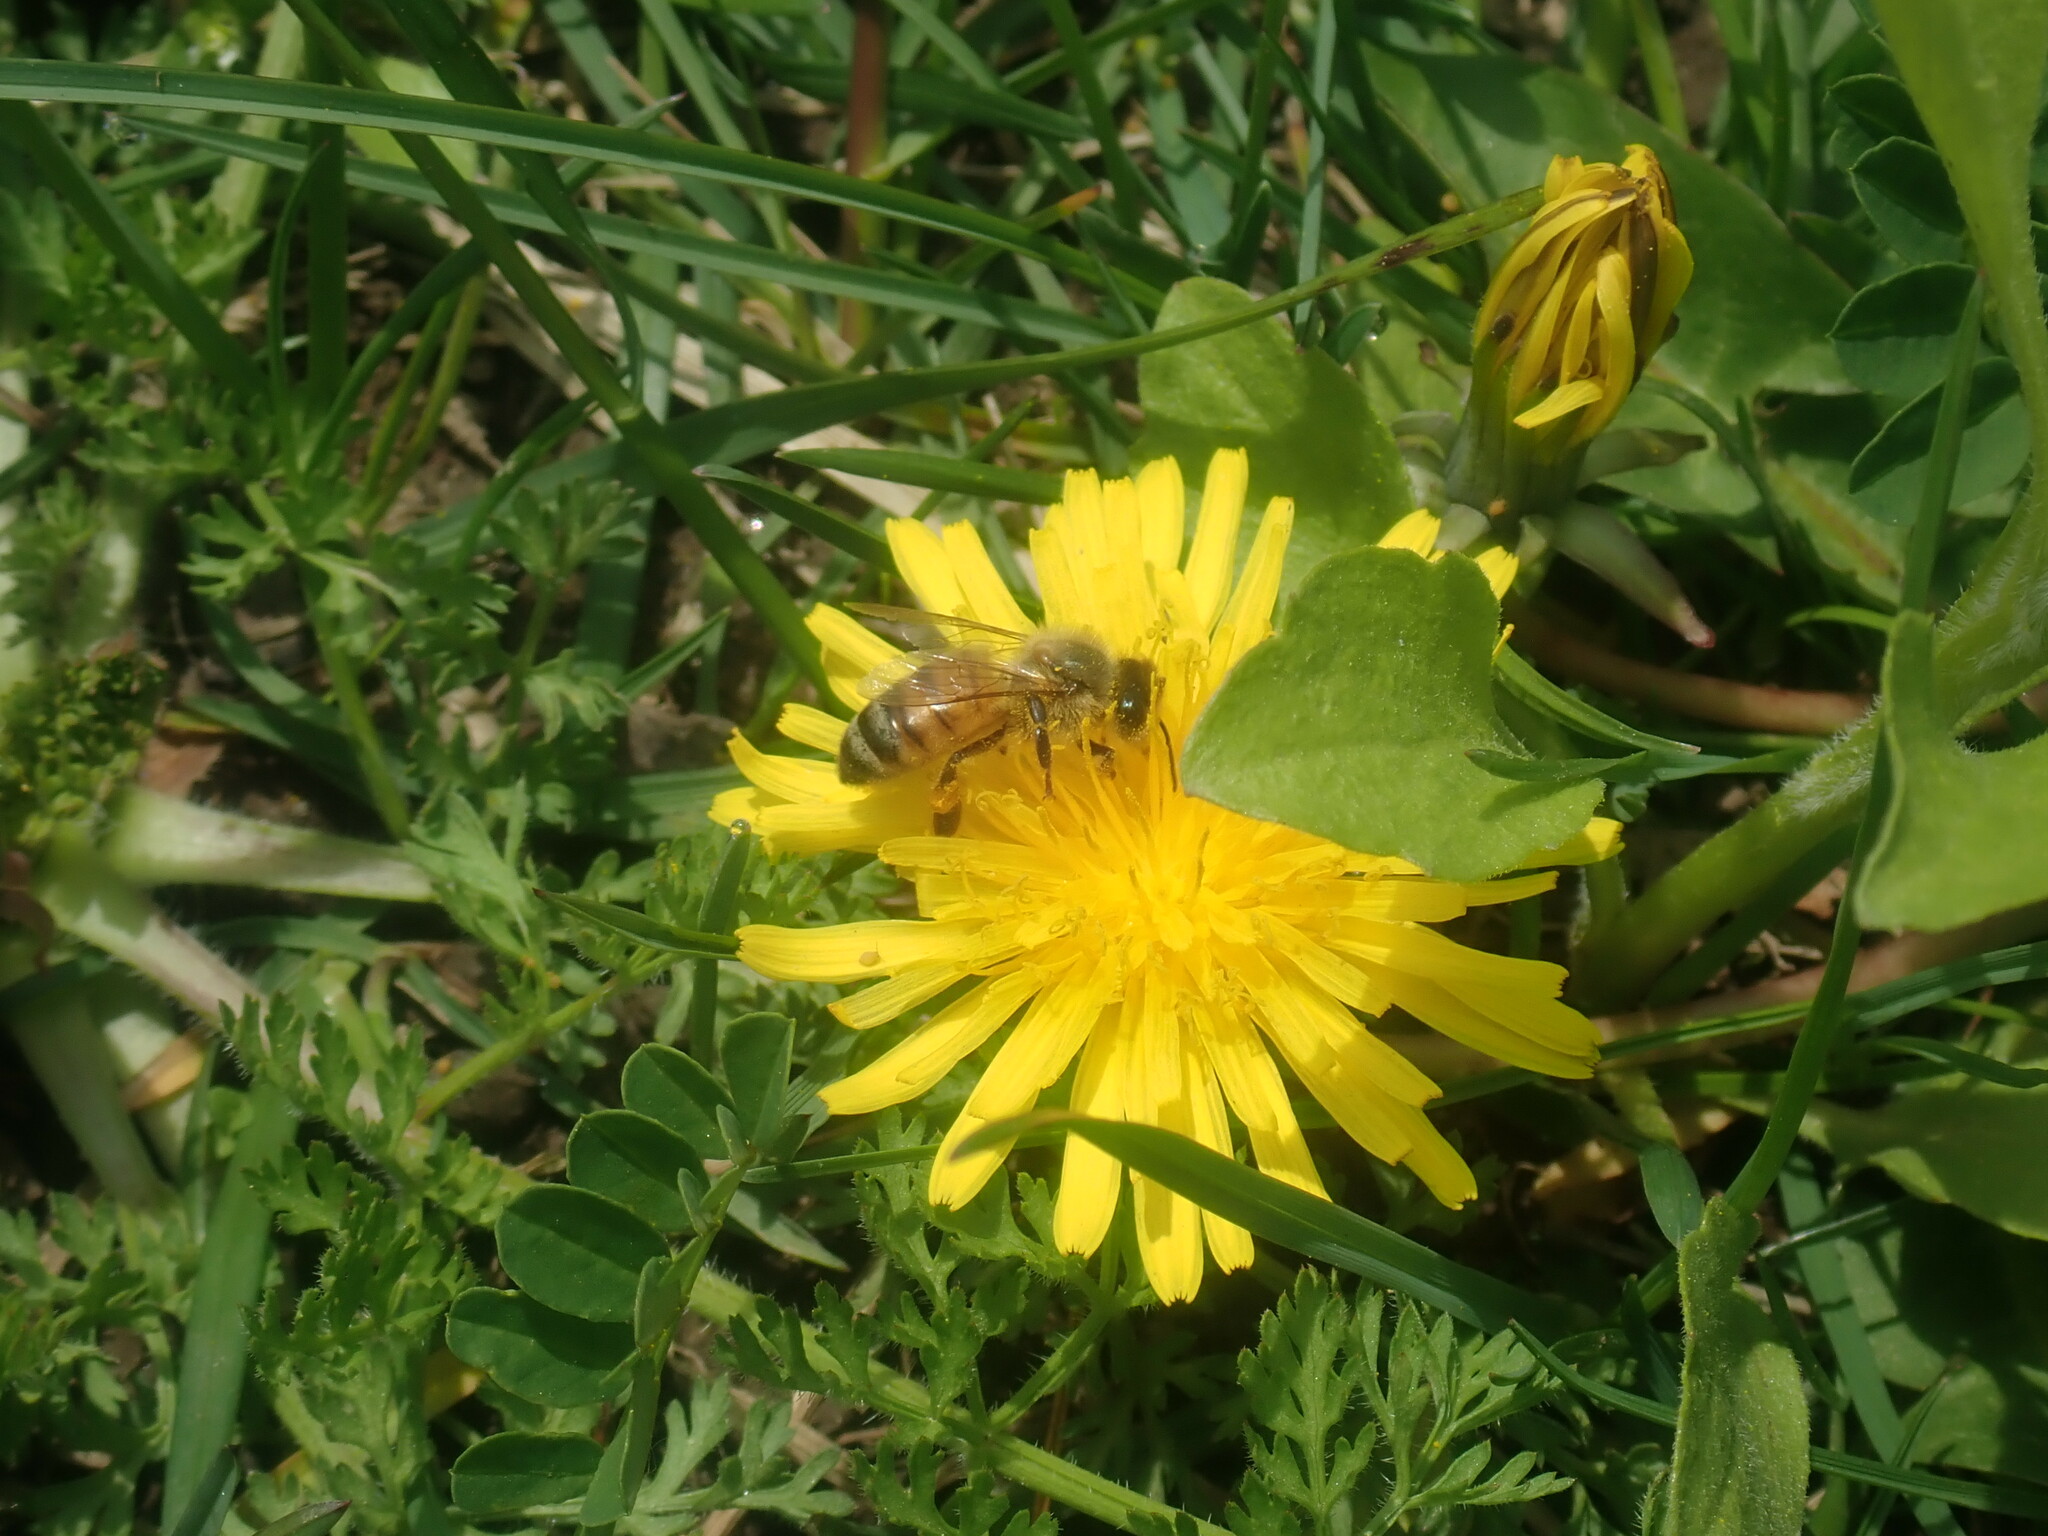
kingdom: Animalia
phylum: Arthropoda
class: Insecta
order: Hymenoptera
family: Apidae
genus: Apis
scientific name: Apis mellifera
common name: Honey bee
